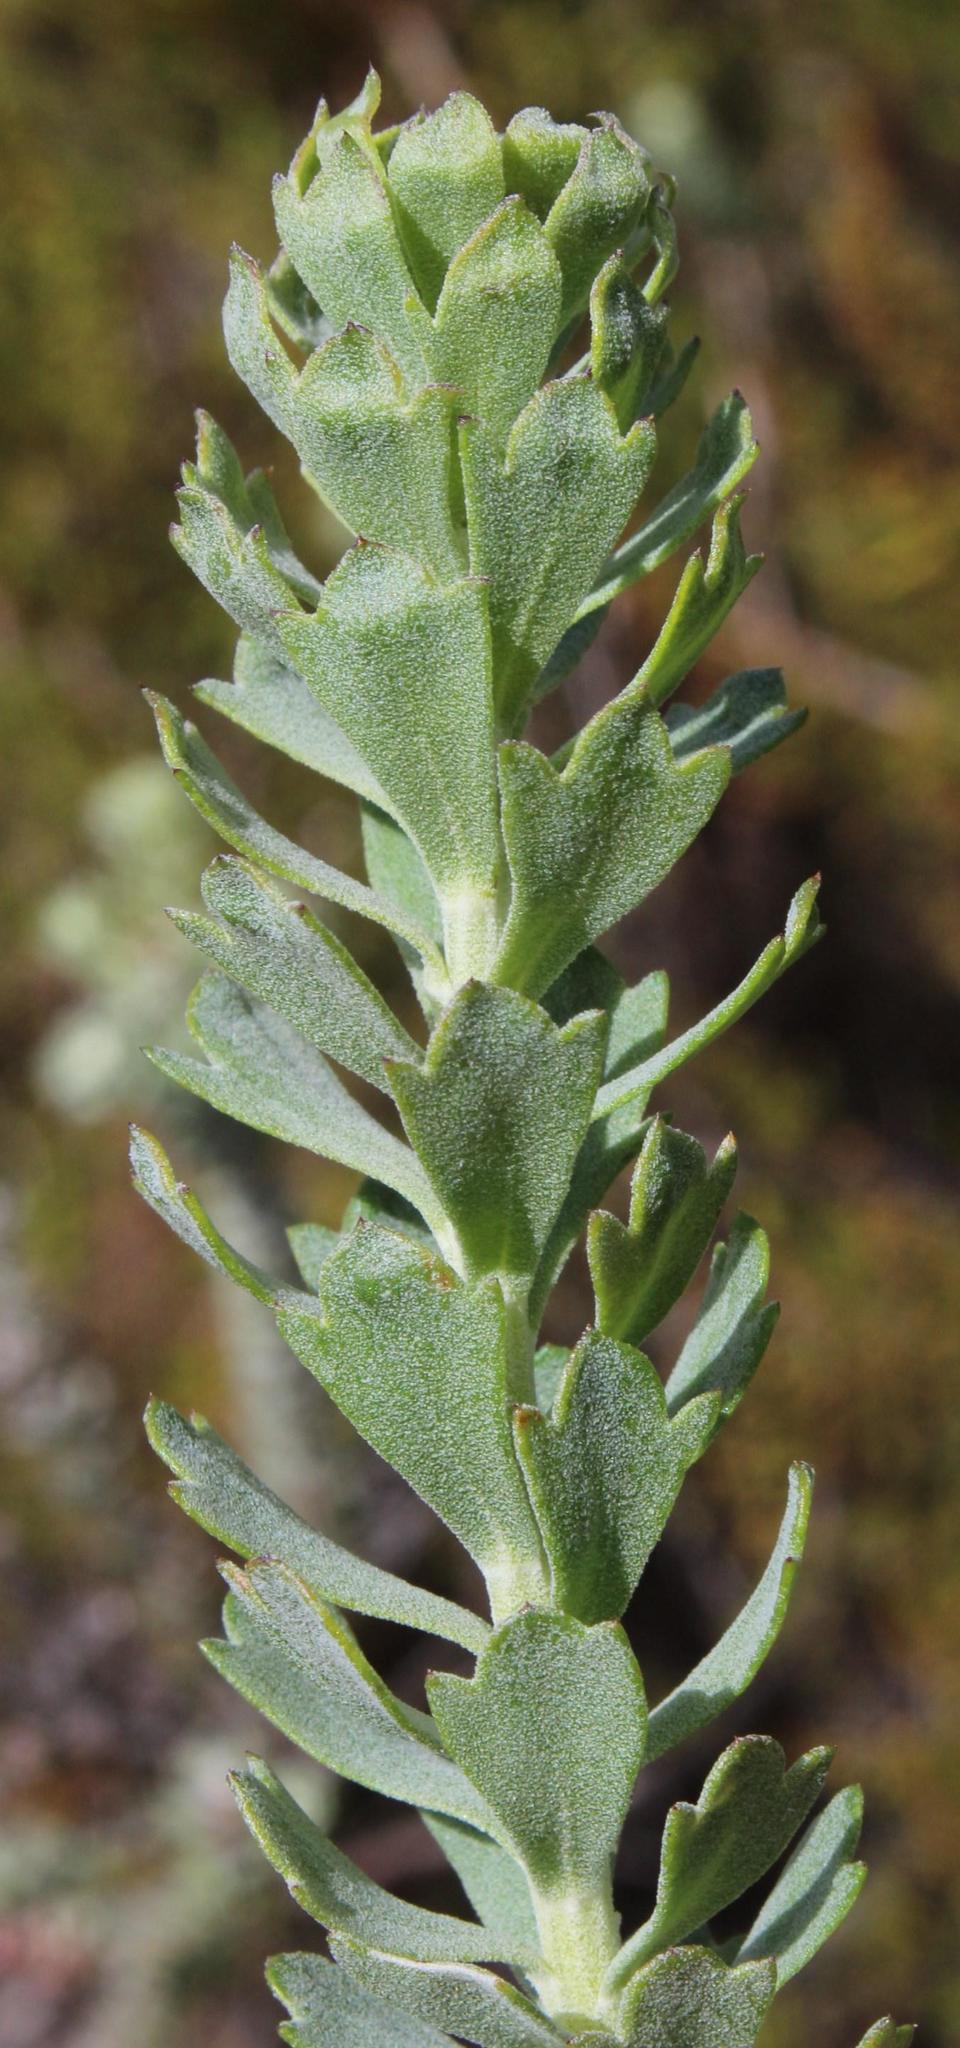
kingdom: Plantae
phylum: Tracheophyta
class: Magnoliopsida
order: Asterales
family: Asteraceae
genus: Athanasia
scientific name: Athanasia trifurcata
